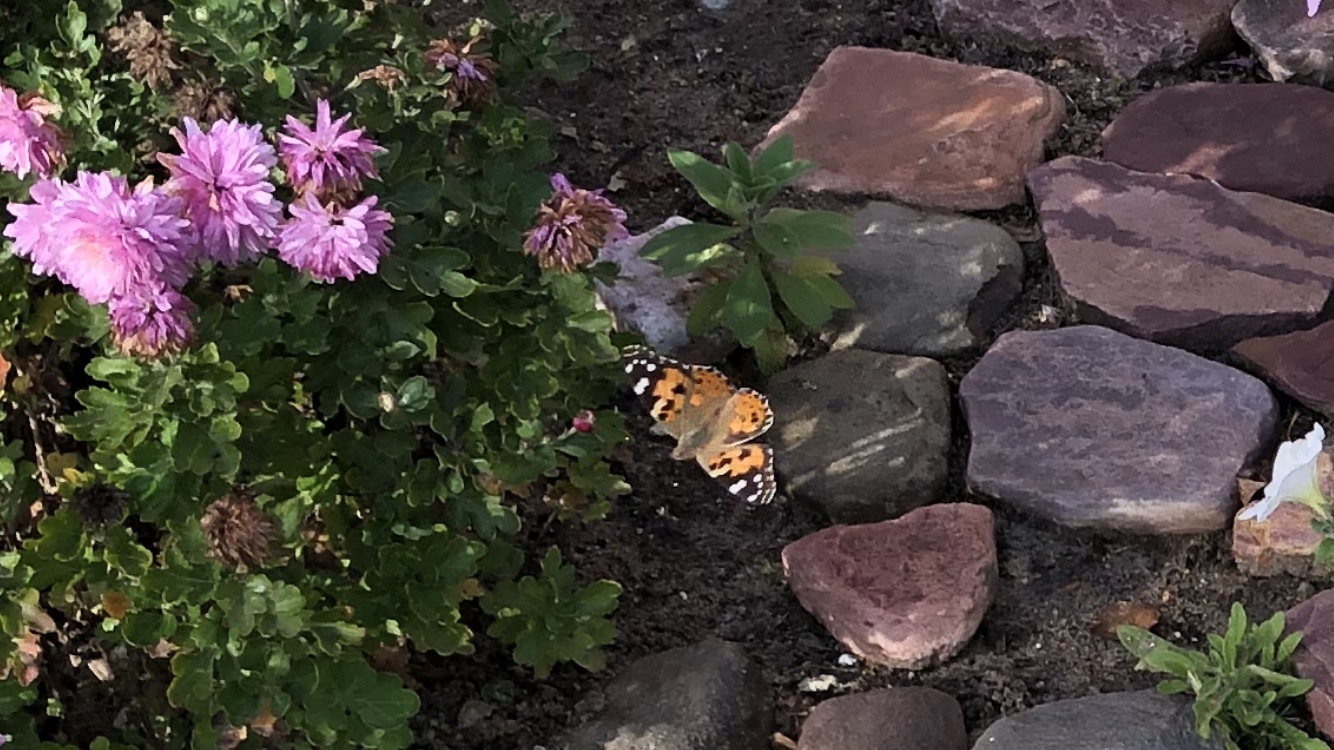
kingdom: Animalia
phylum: Arthropoda
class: Insecta
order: Lepidoptera
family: Nymphalidae
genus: Vanessa
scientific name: Vanessa cardui
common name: Painted lady
